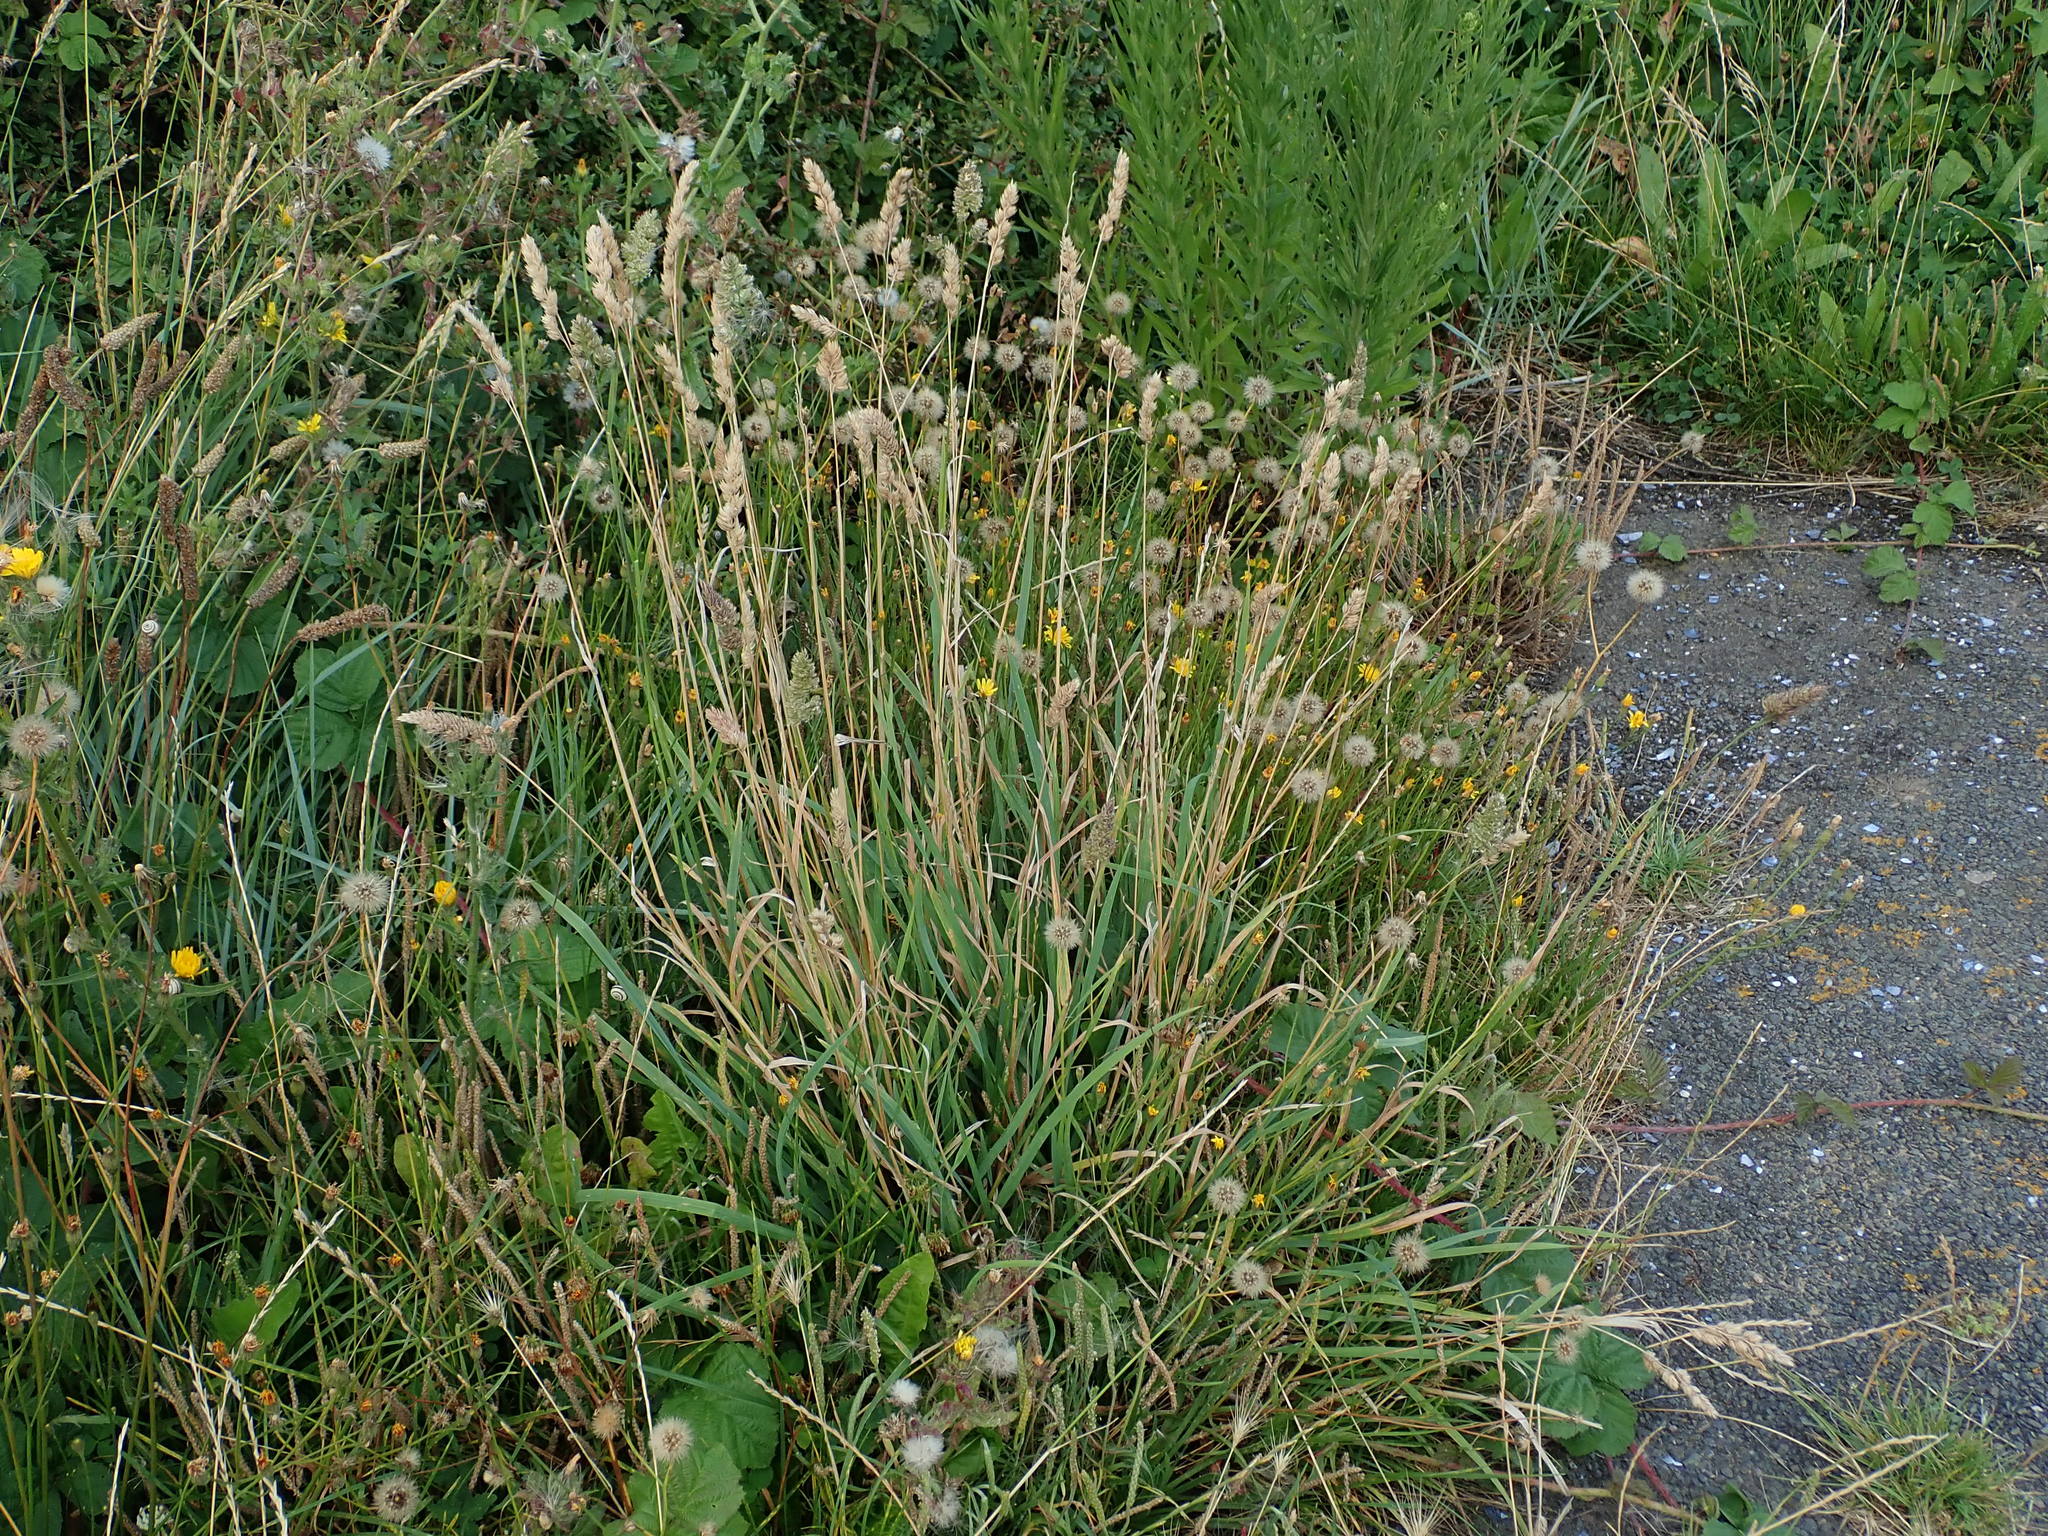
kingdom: Plantae
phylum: Tracheophyta
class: Liliopsida
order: Poales
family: Poaceae
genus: Dactylis
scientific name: Dactylis glomerata
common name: Orchardgrass
